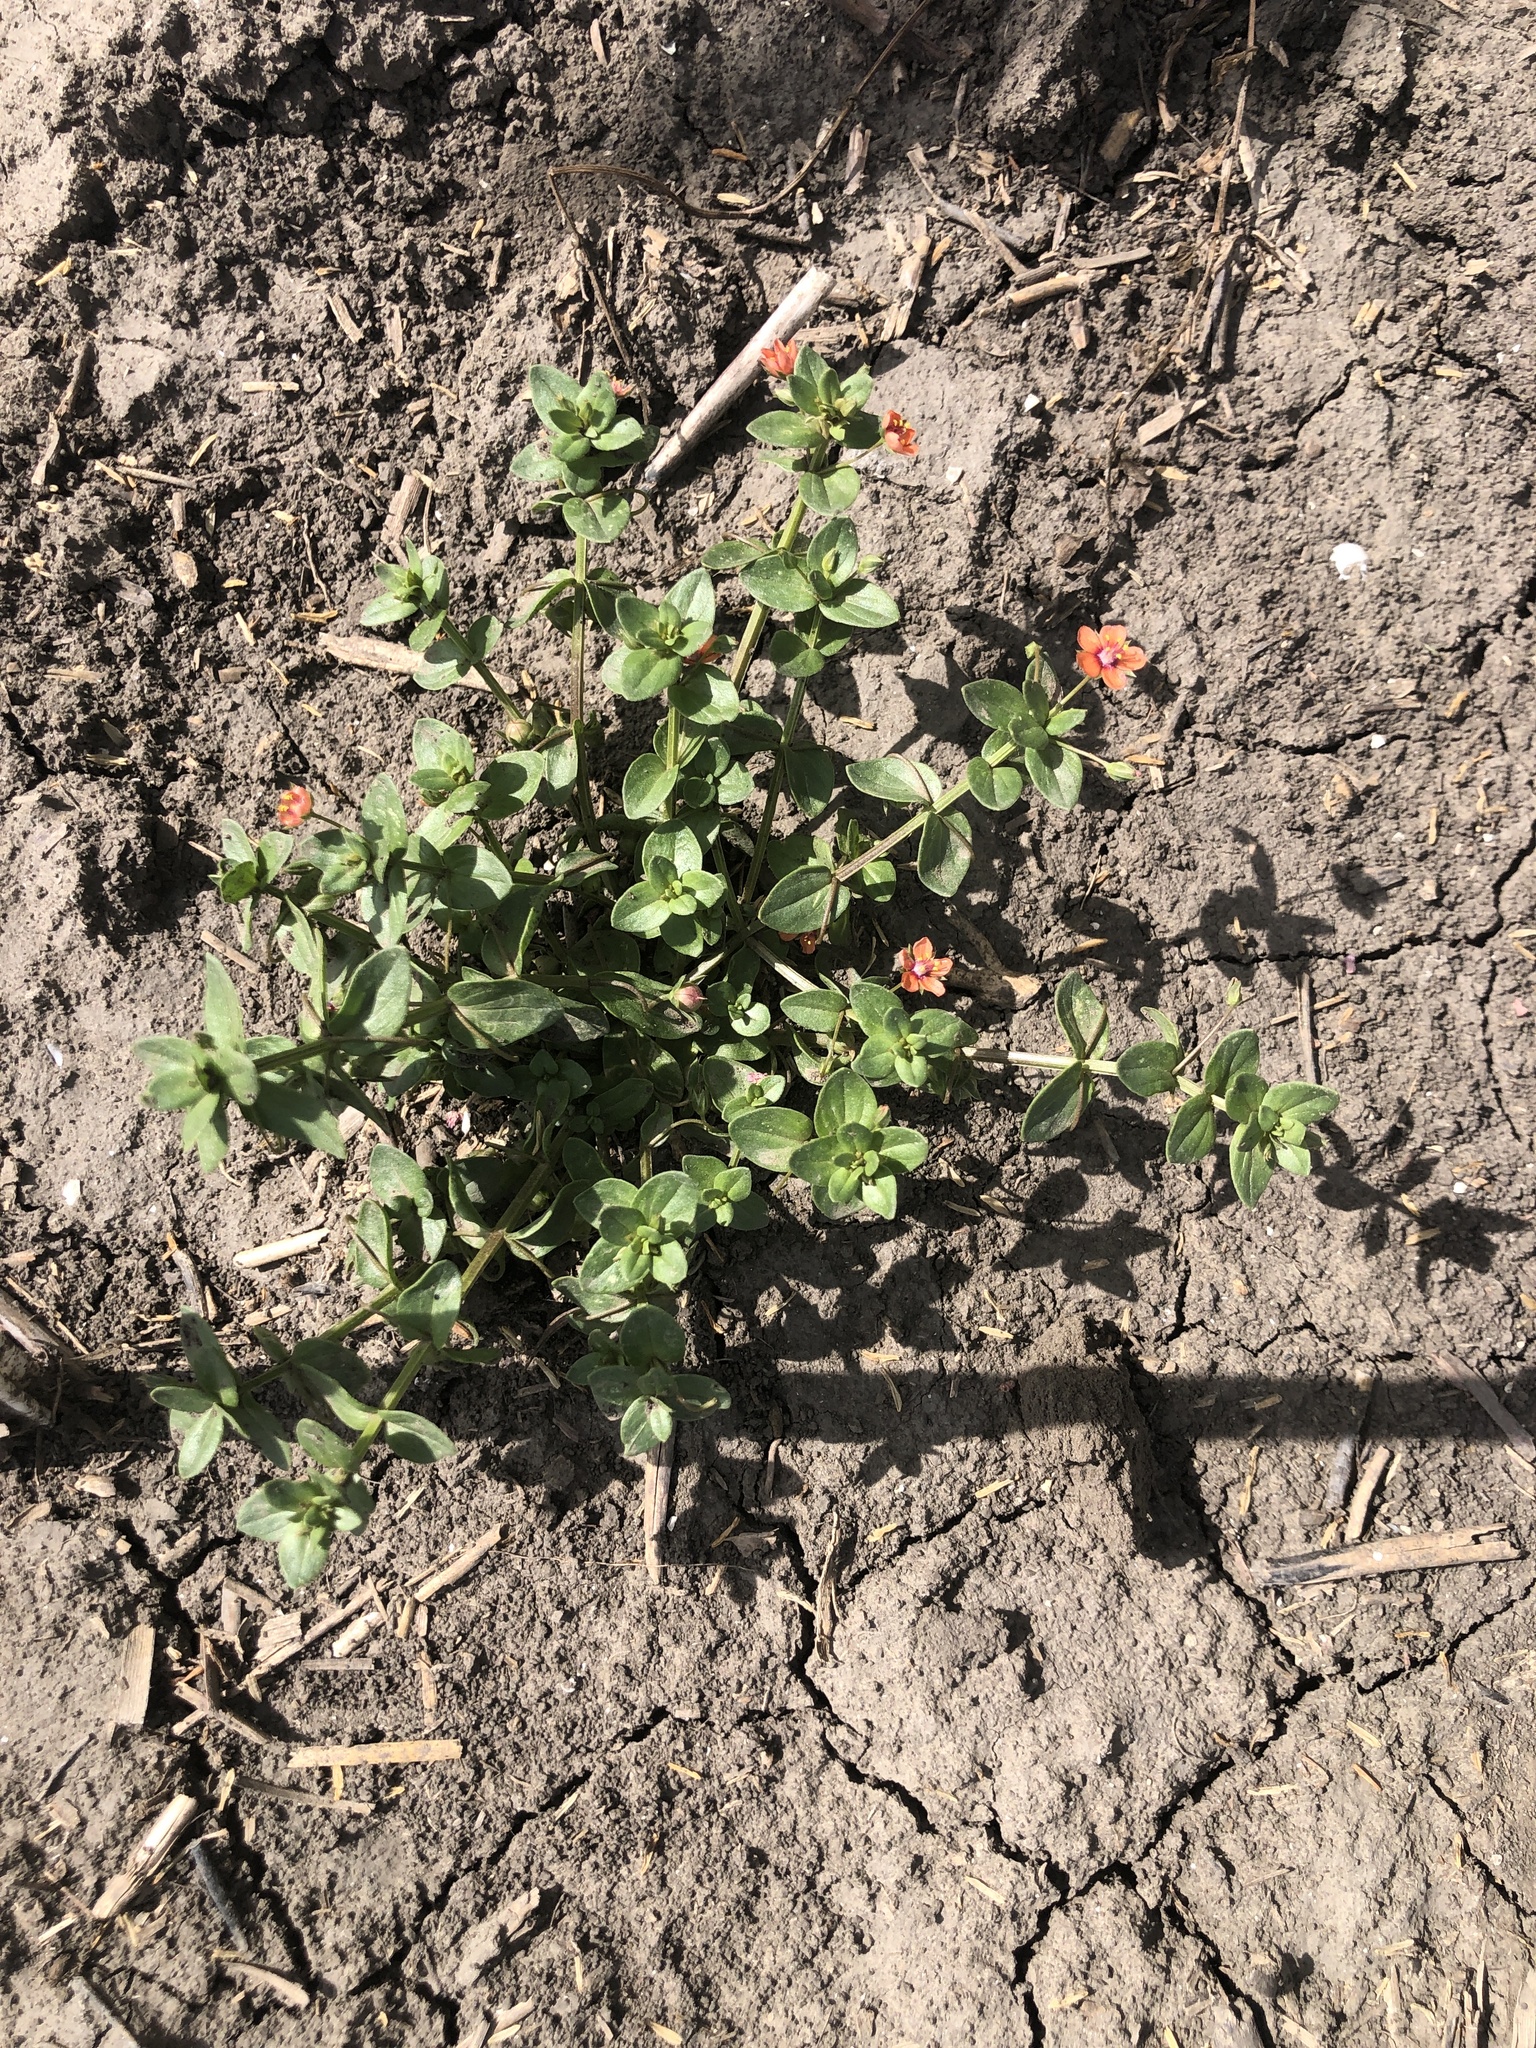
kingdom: Plantae
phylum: Tracheophyta
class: Magnoliopsida
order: Ericales
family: Primulaceae
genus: Lysimachia
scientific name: Lysimachia arvensis
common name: Scarlet pimpernel
